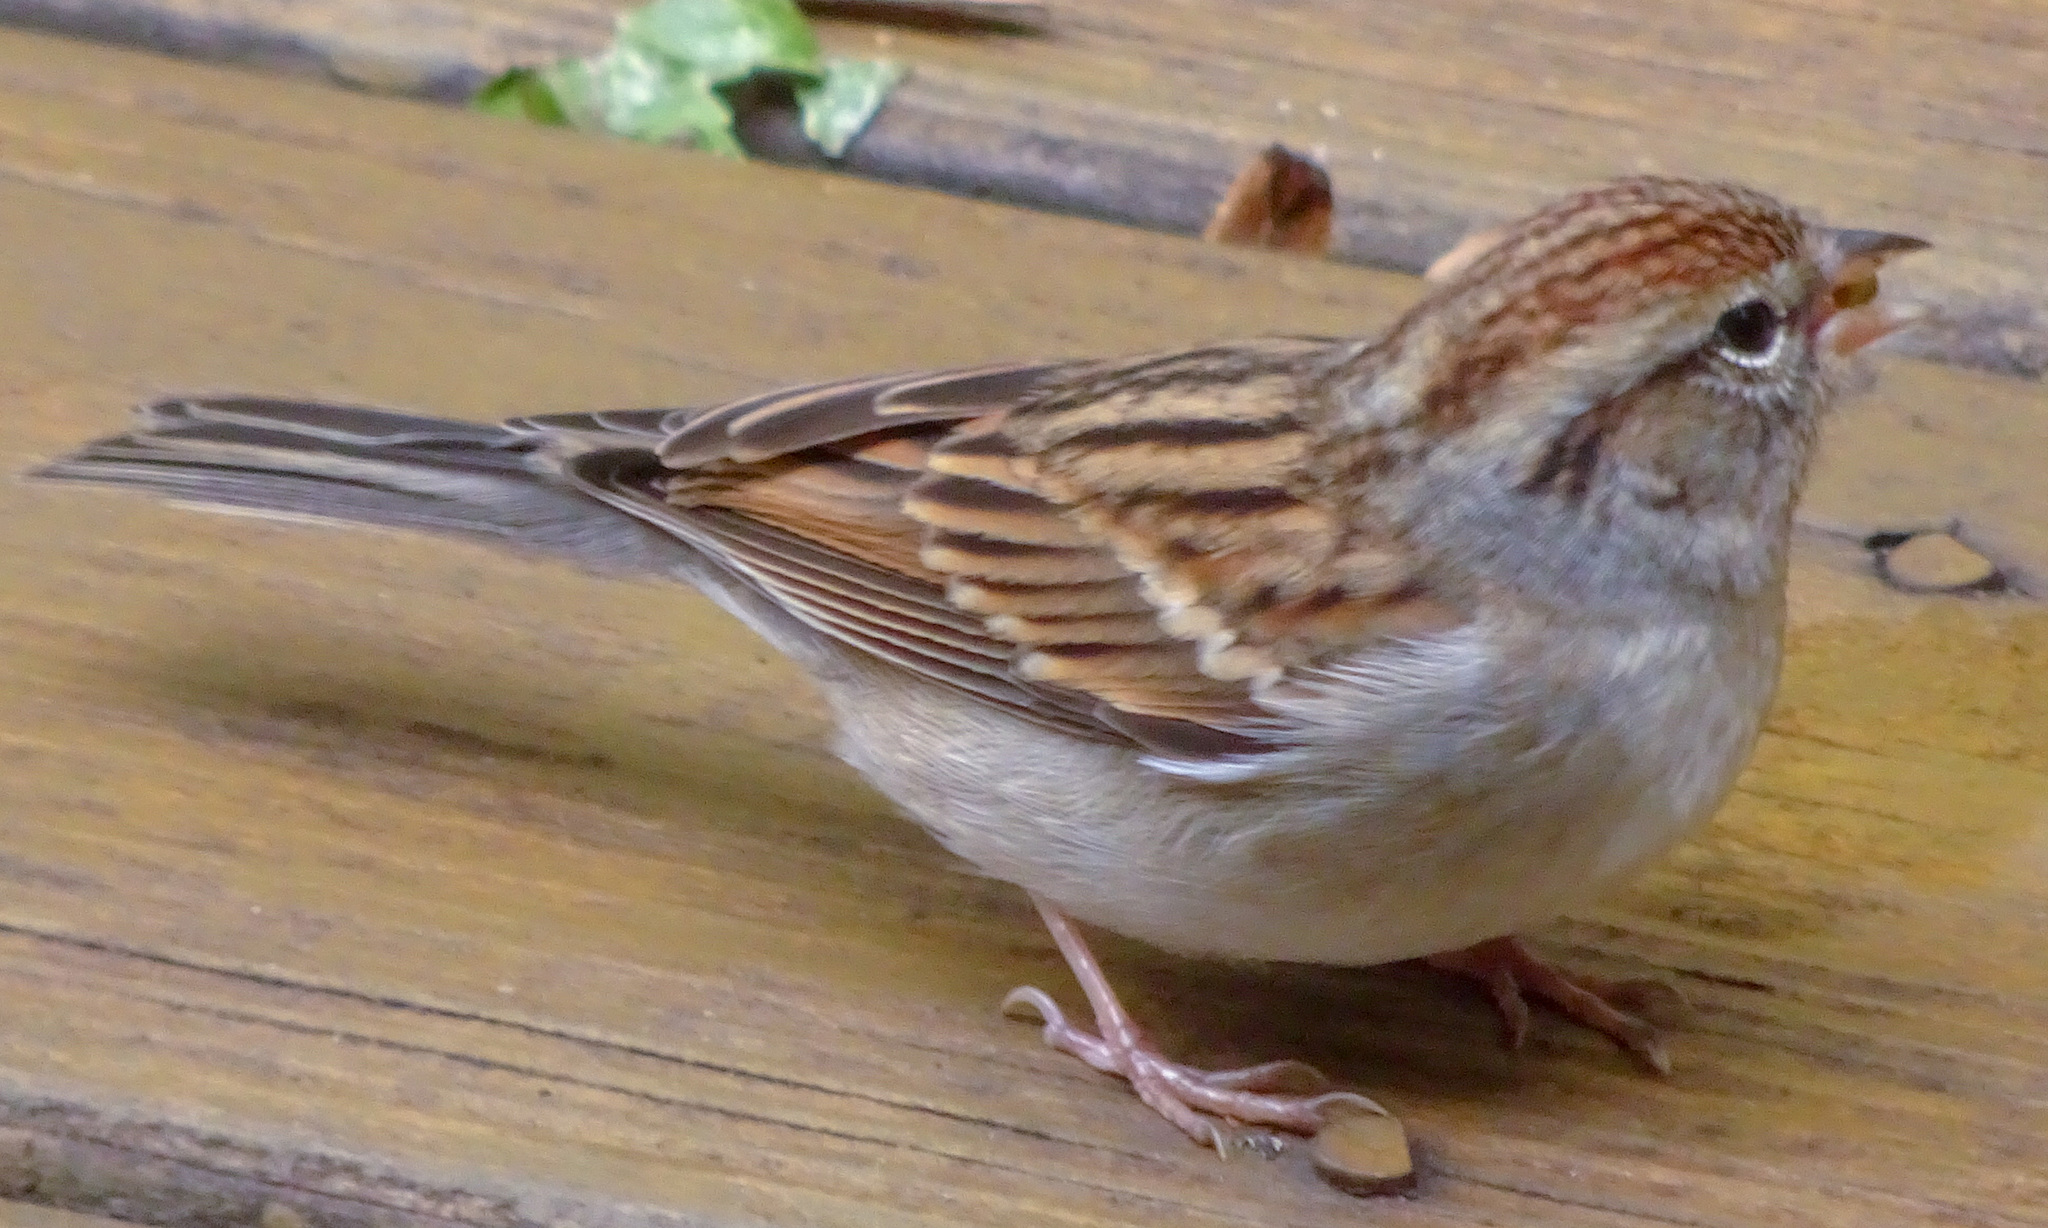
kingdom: Animalia
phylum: Chordata
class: Aves
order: Passeriformes
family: Passerellidae
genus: Spizella
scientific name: Spizella passerina
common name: Chipping sparrow
